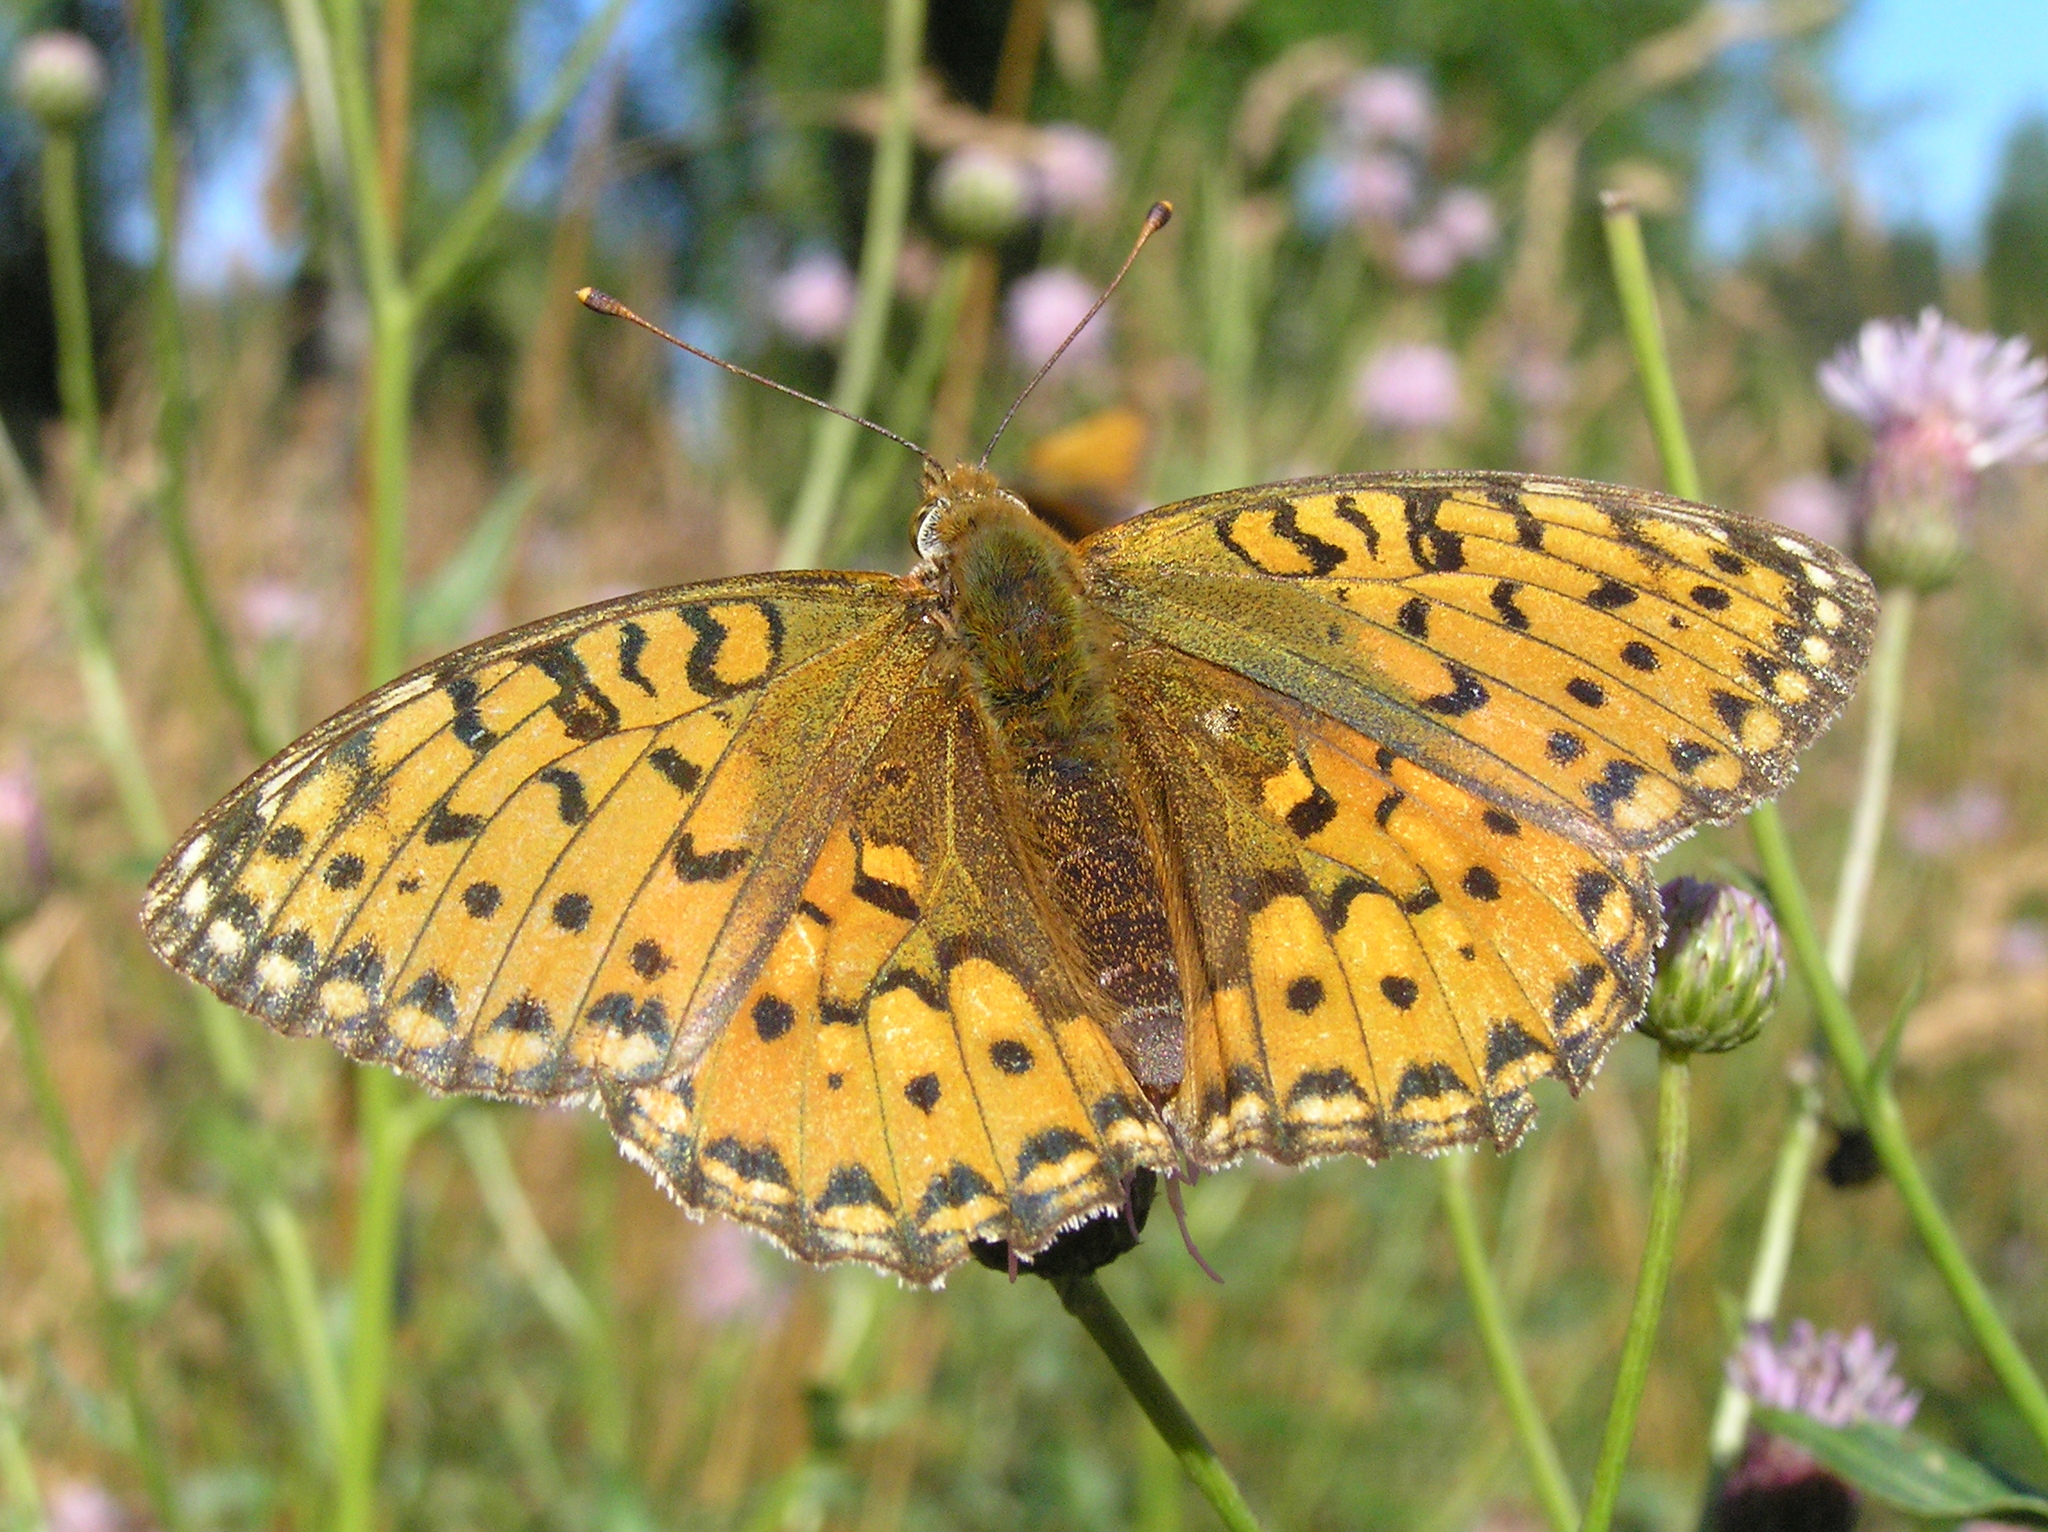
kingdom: Animalia
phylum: Arthropoda
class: Insecta
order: Lepidoptera
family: Nymphalidae
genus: Speyeria
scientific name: Speyeria aglaja
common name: Dark green fritillary
